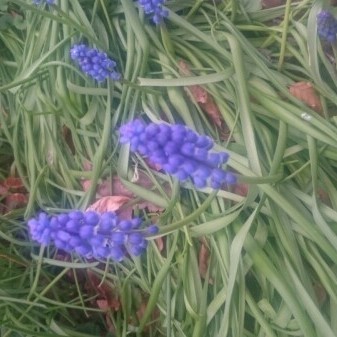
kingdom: Plantae
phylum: Tracheophyta
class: Liliopsida
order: Asparagales
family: Asparagaceae
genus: Muscari
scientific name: Muscari armeniacum
